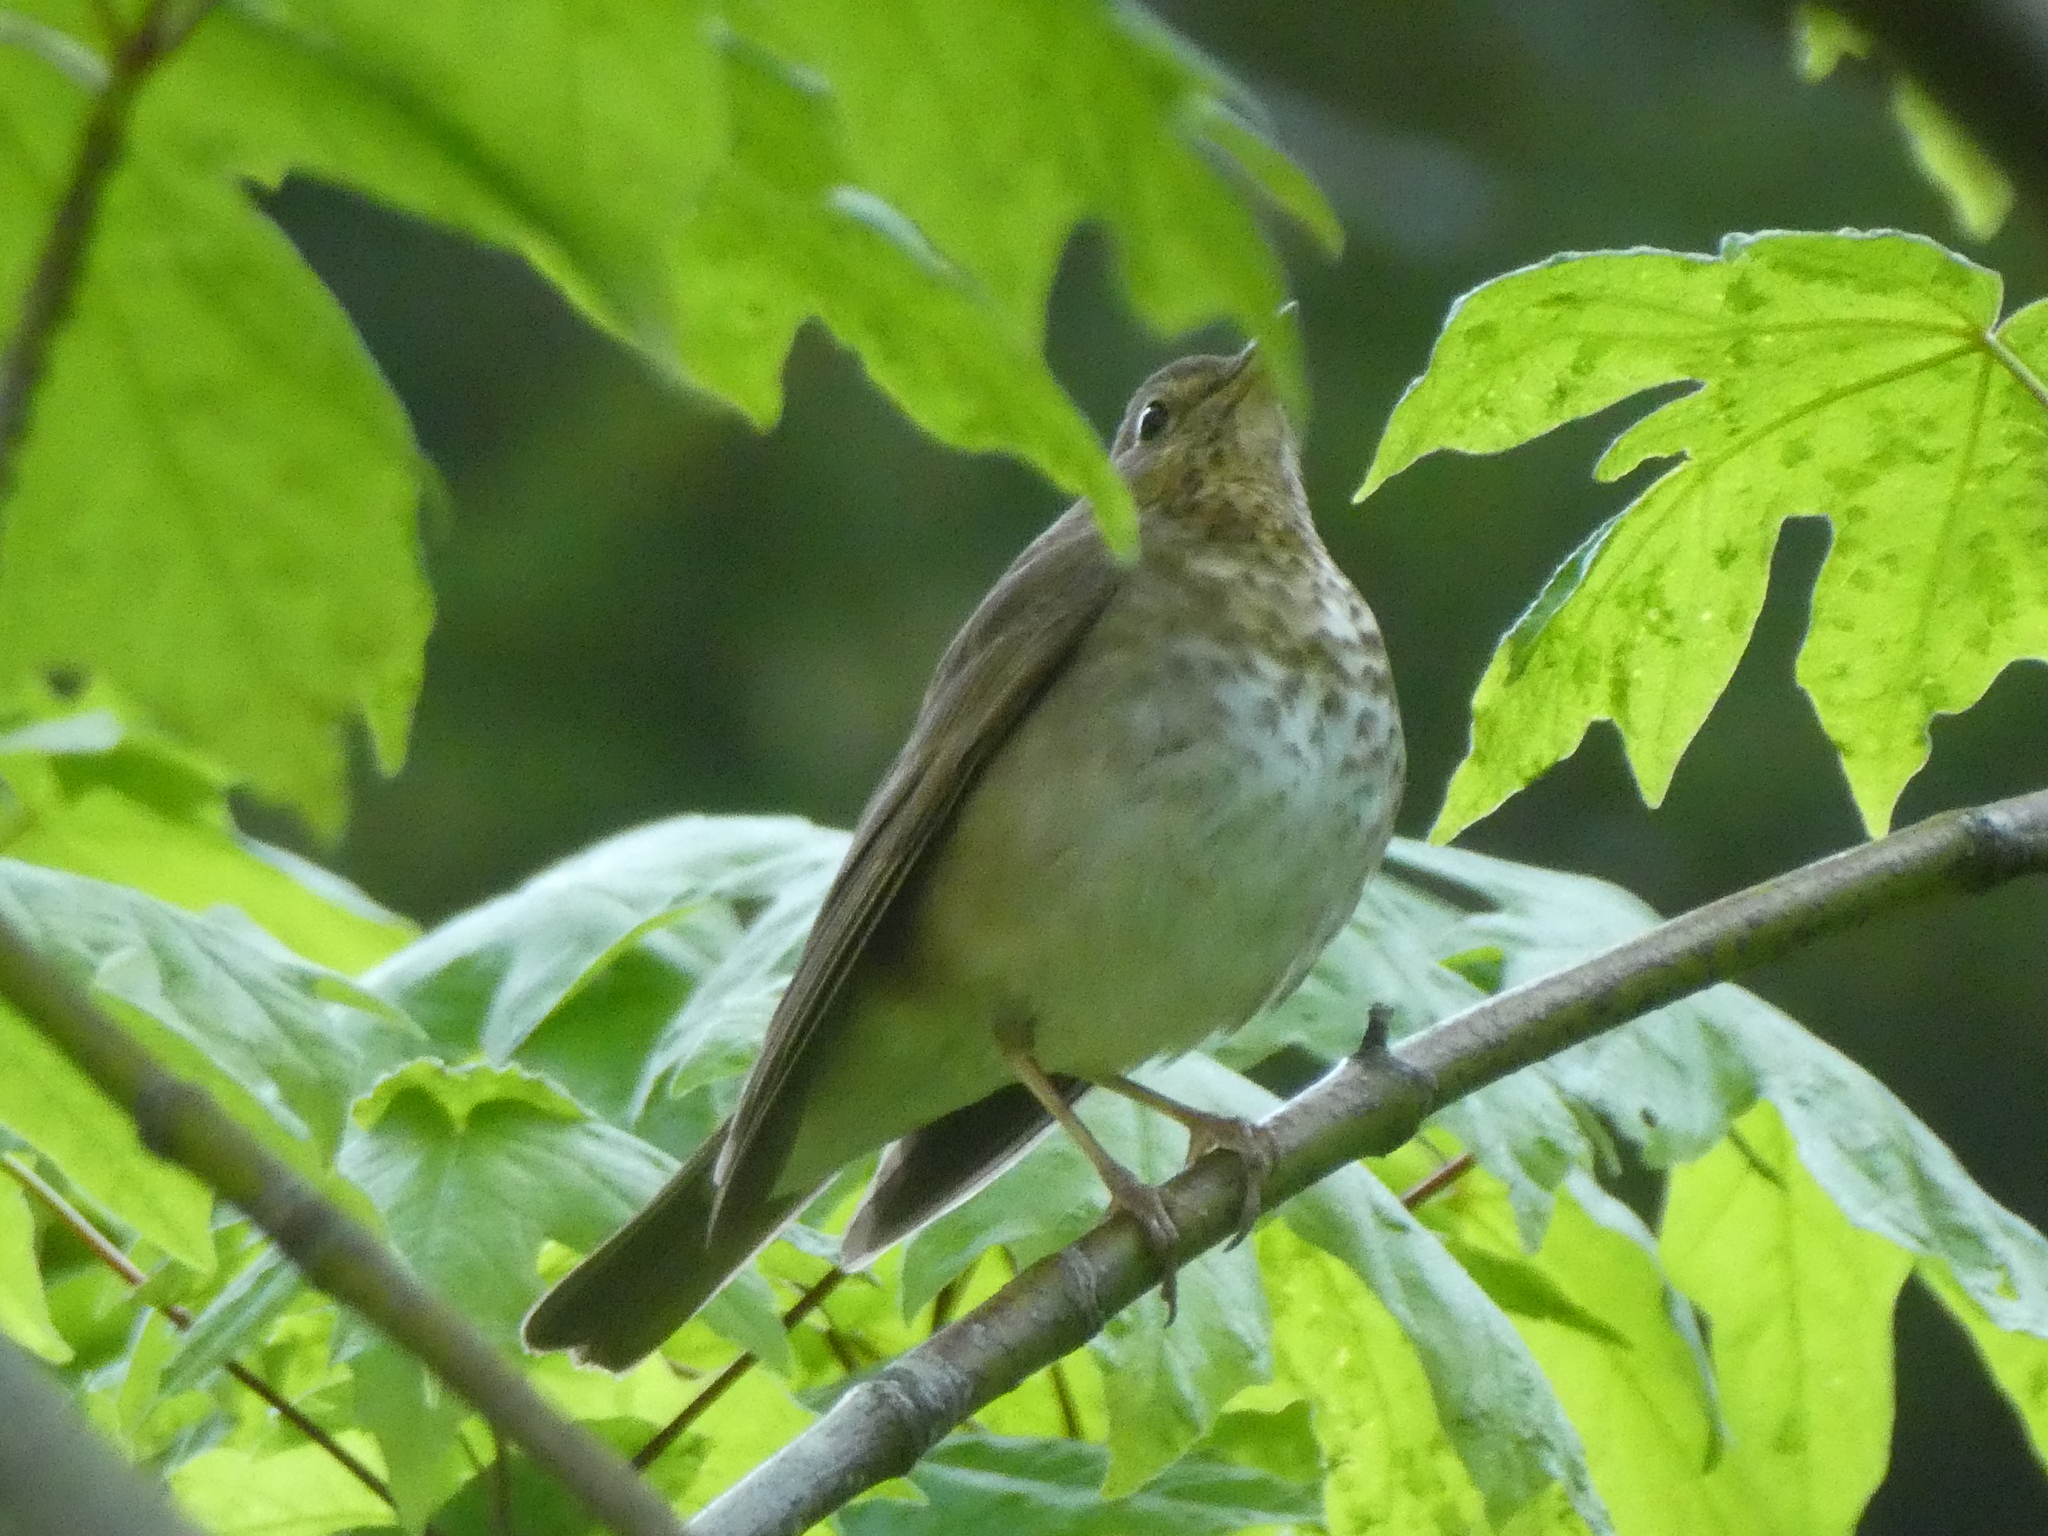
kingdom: Animalia
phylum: Chordata
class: Aves
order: Passeriformes
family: Turdidae
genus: Catharus
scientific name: Catharus ustulatus
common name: Swainson's thrush
